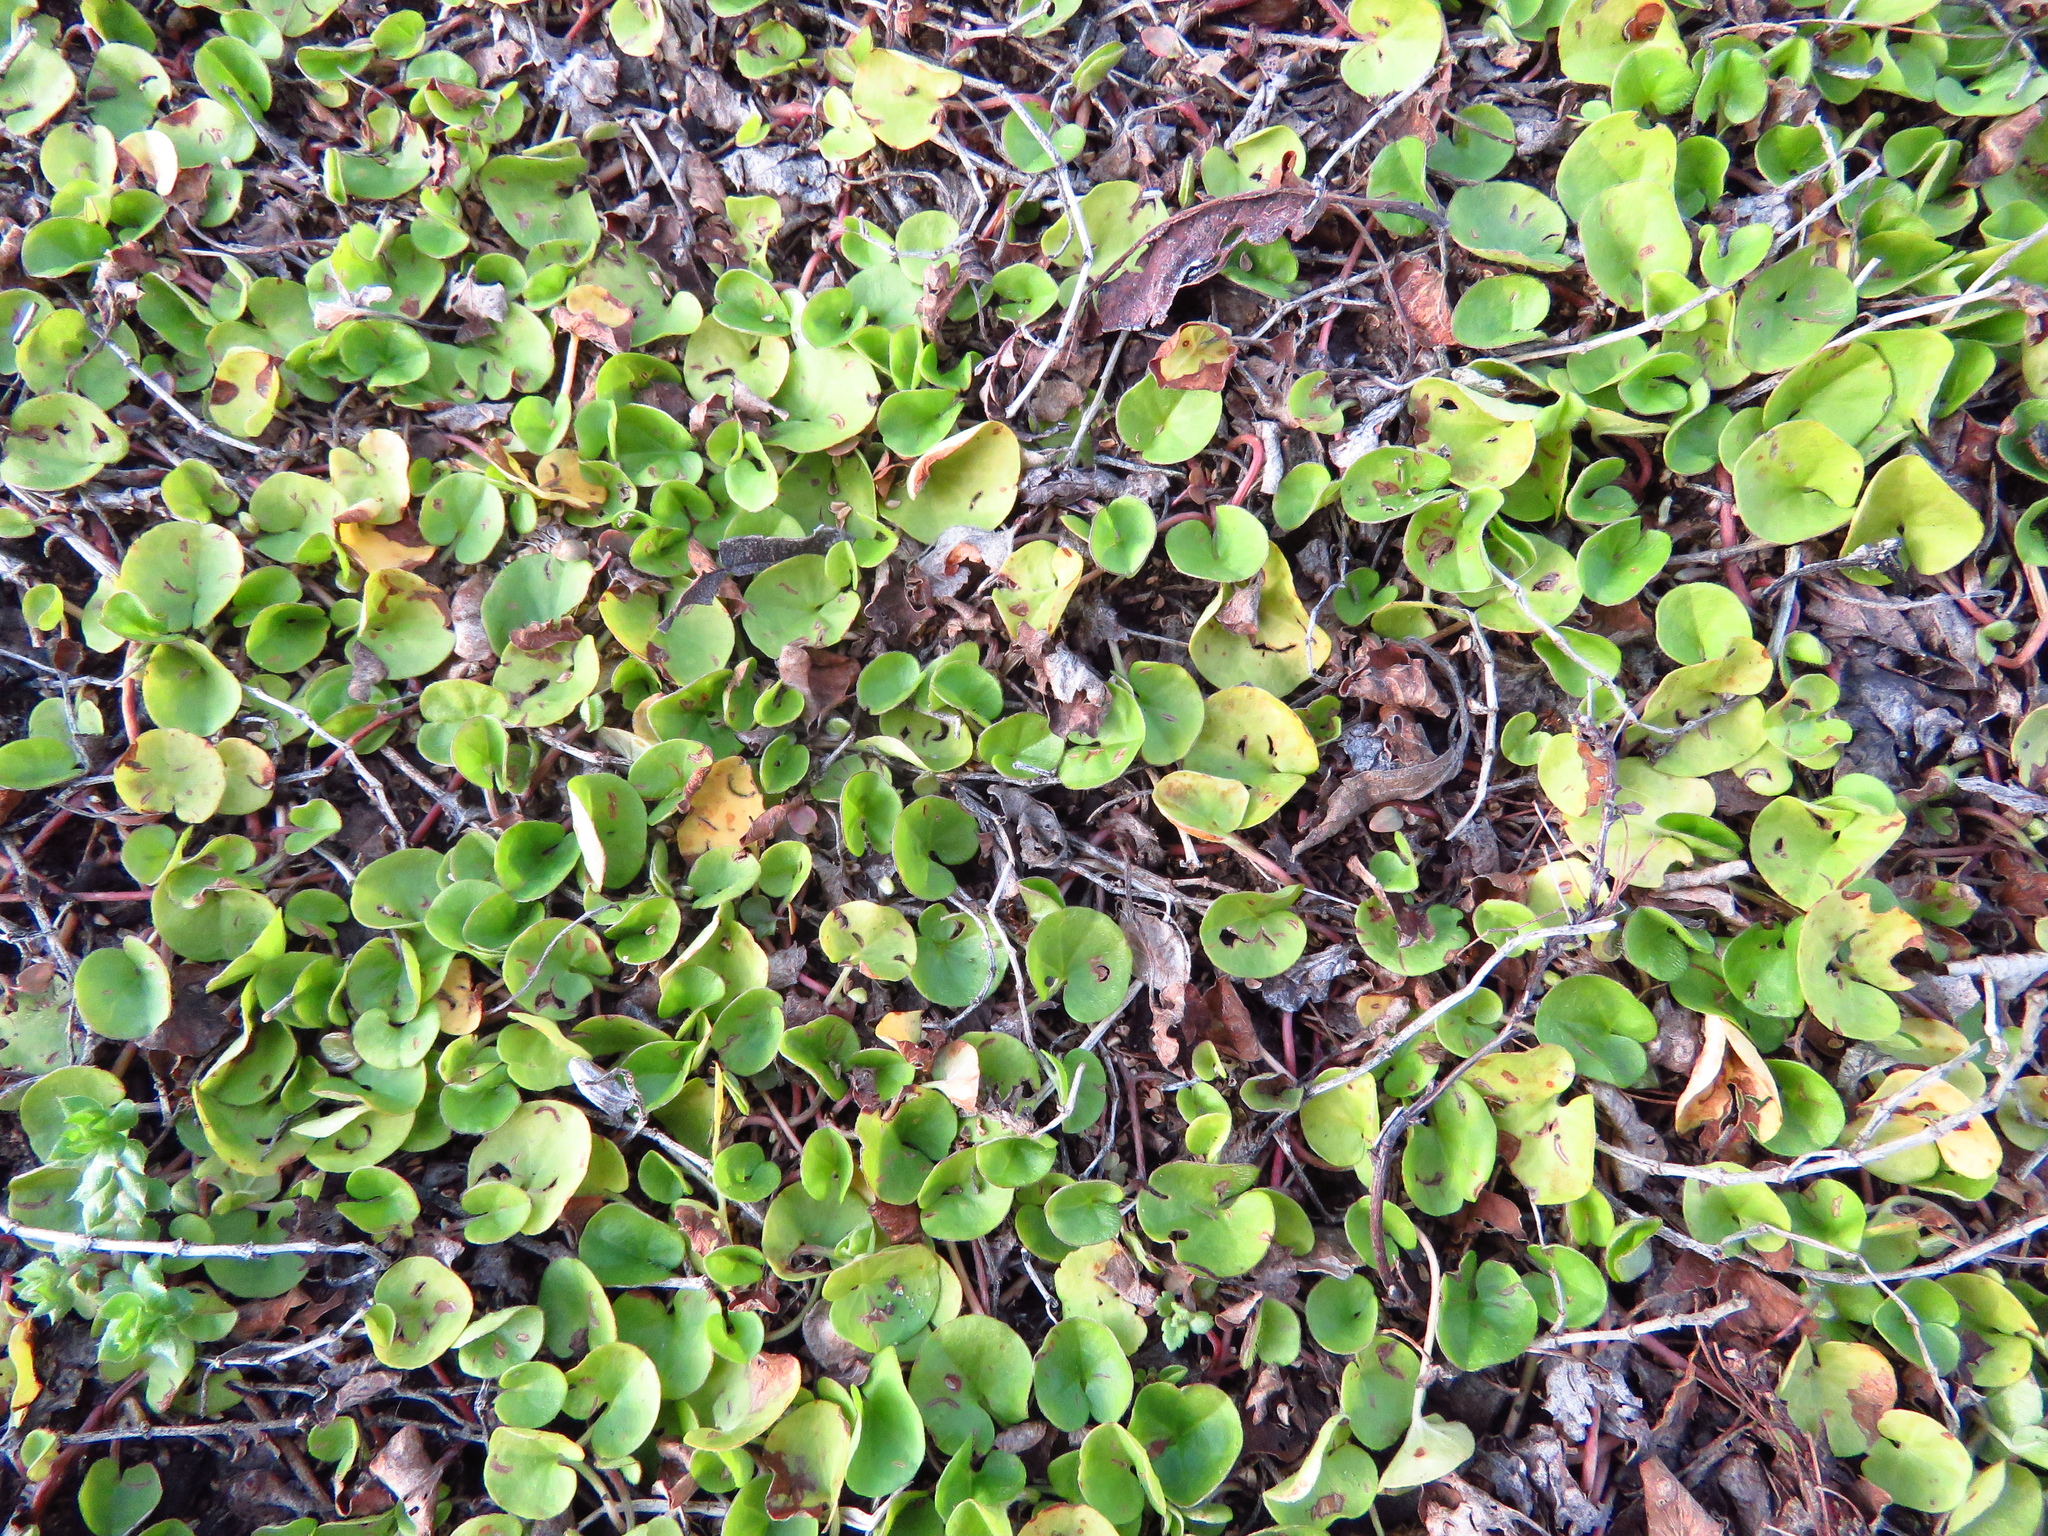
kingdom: Plantae
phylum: Tracheophyta
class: Magnoliopsida
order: Solanales
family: Convolvulaceae
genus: Dichondra
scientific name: Dichondra carolinensis
